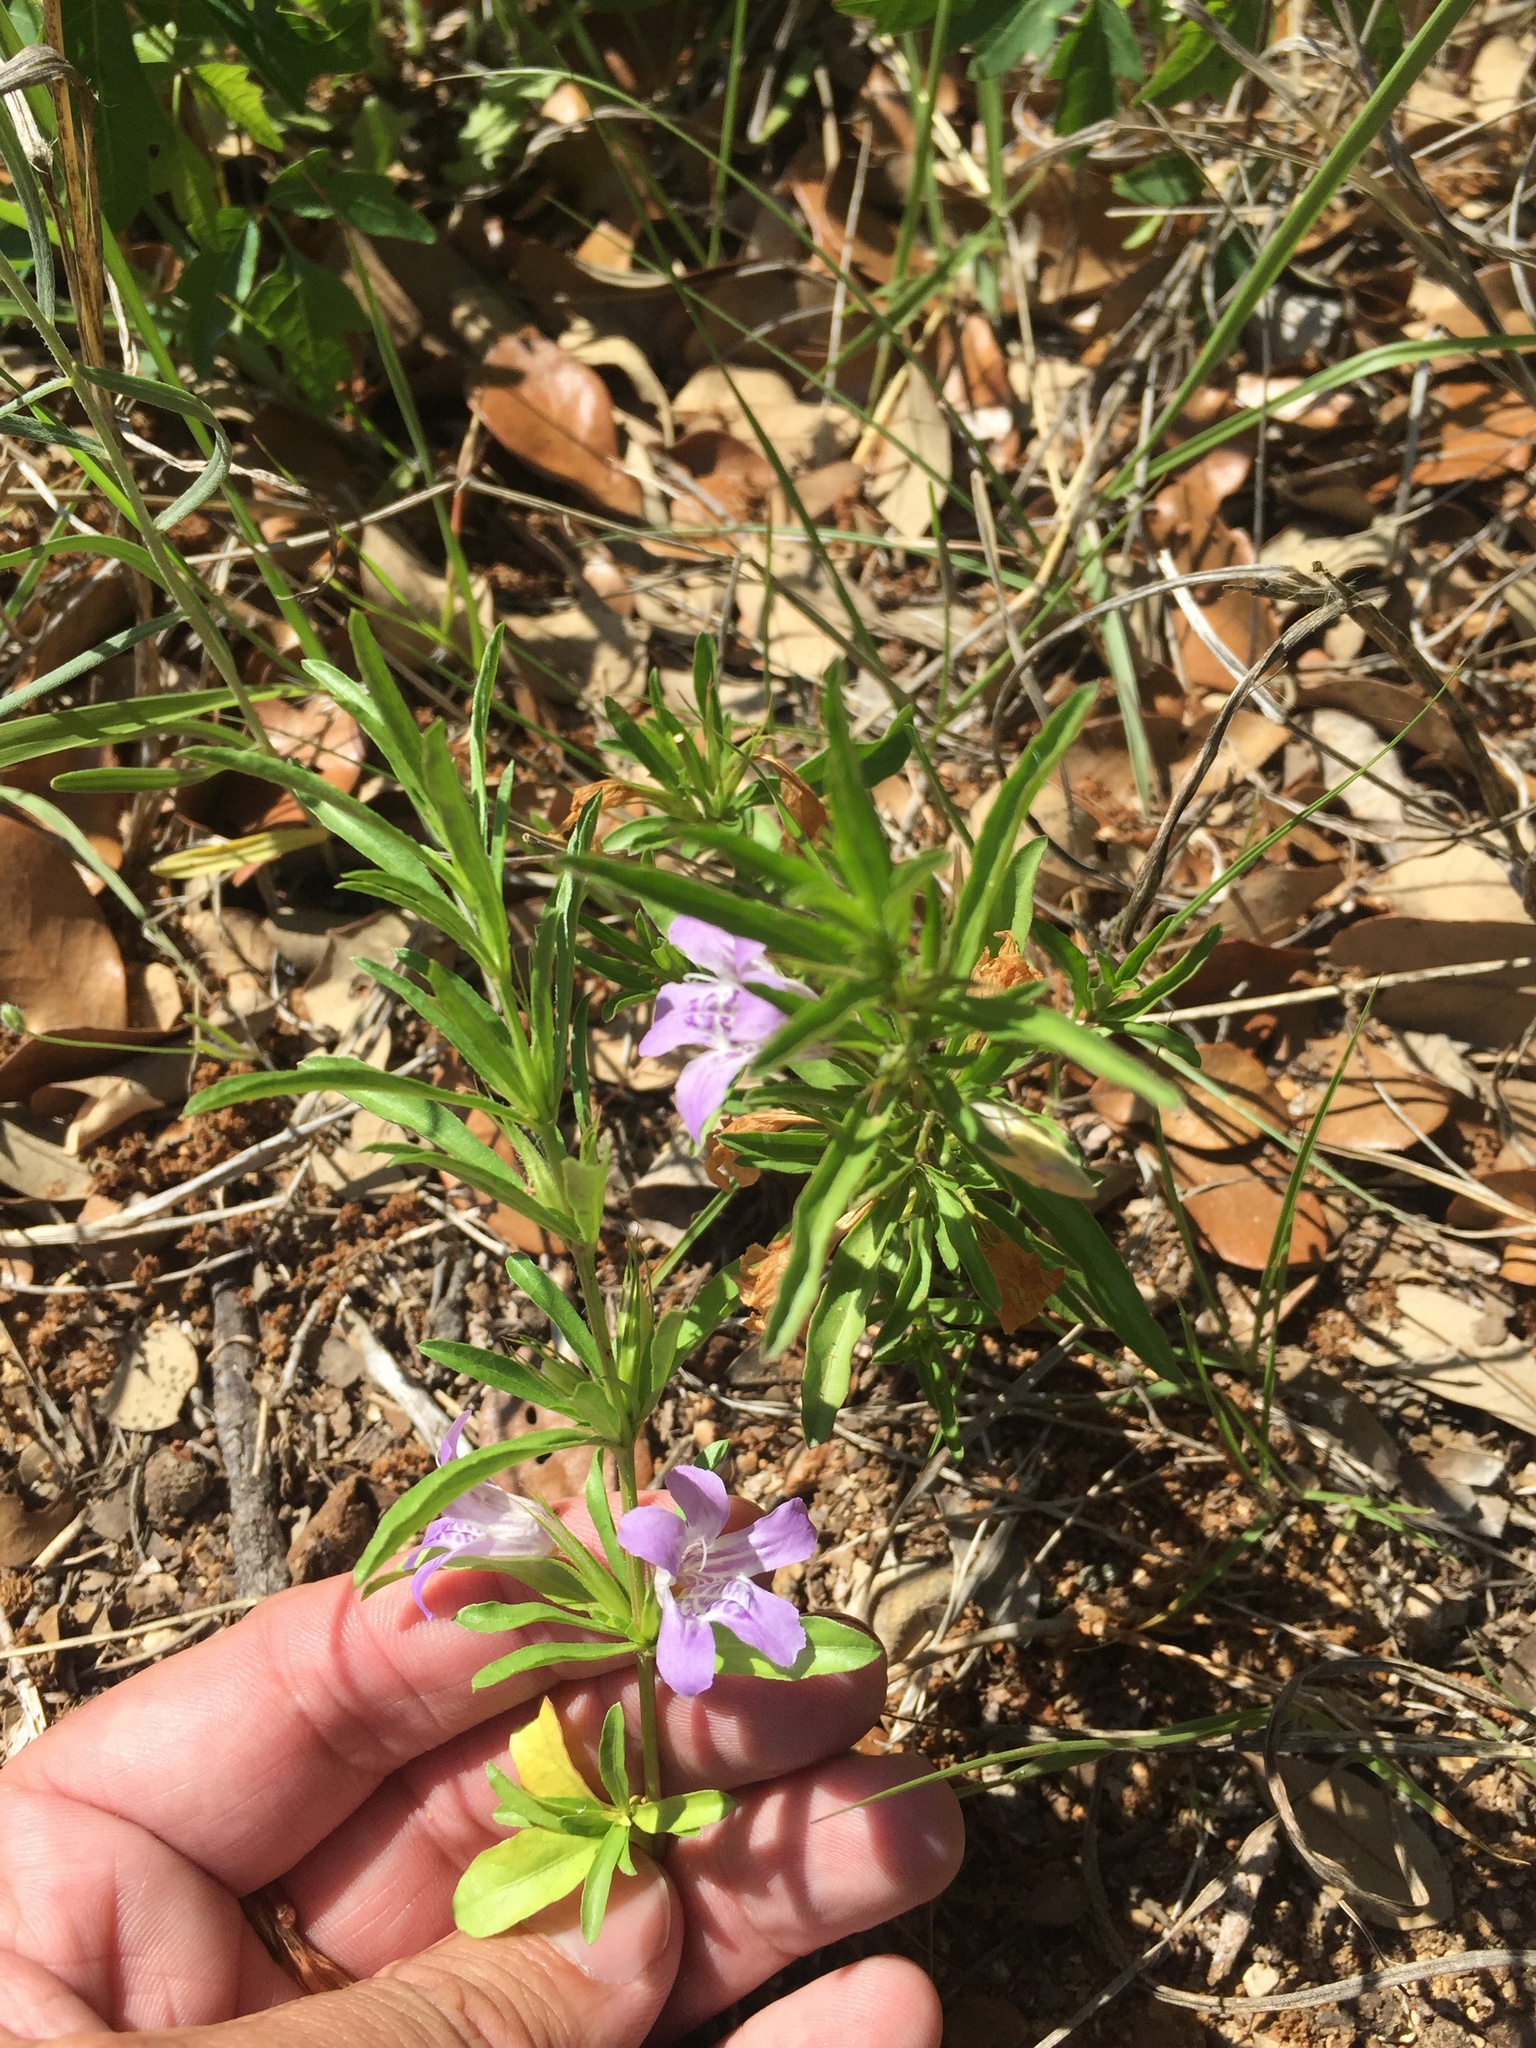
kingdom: Plantae
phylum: Tracheophyta
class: Magnoliopsida
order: Lamiales
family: Acanthaceae
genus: Dyschoriste
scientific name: Dyschoriste linearis
